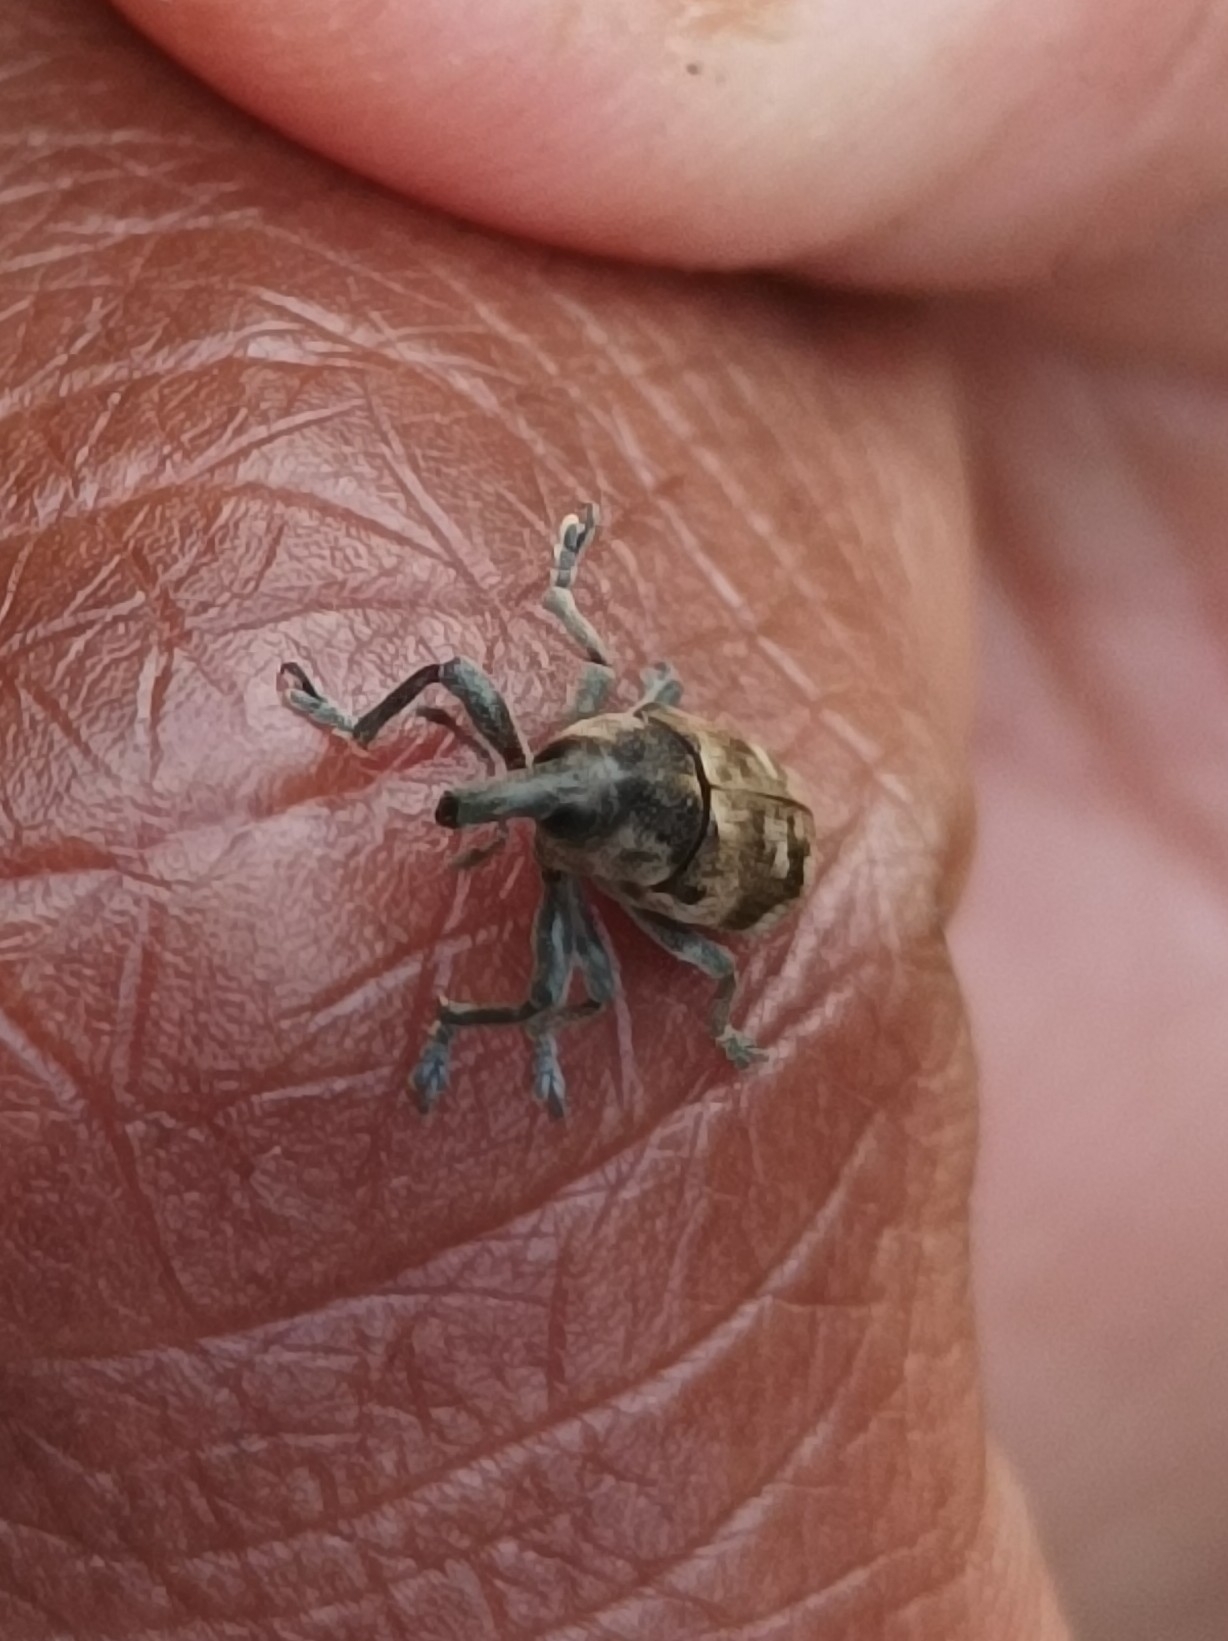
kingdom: Animalia
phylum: Arthropoda
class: Insecta
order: Coleoptera
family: Curculionidae
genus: Hypolixus
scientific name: Hypolixus
